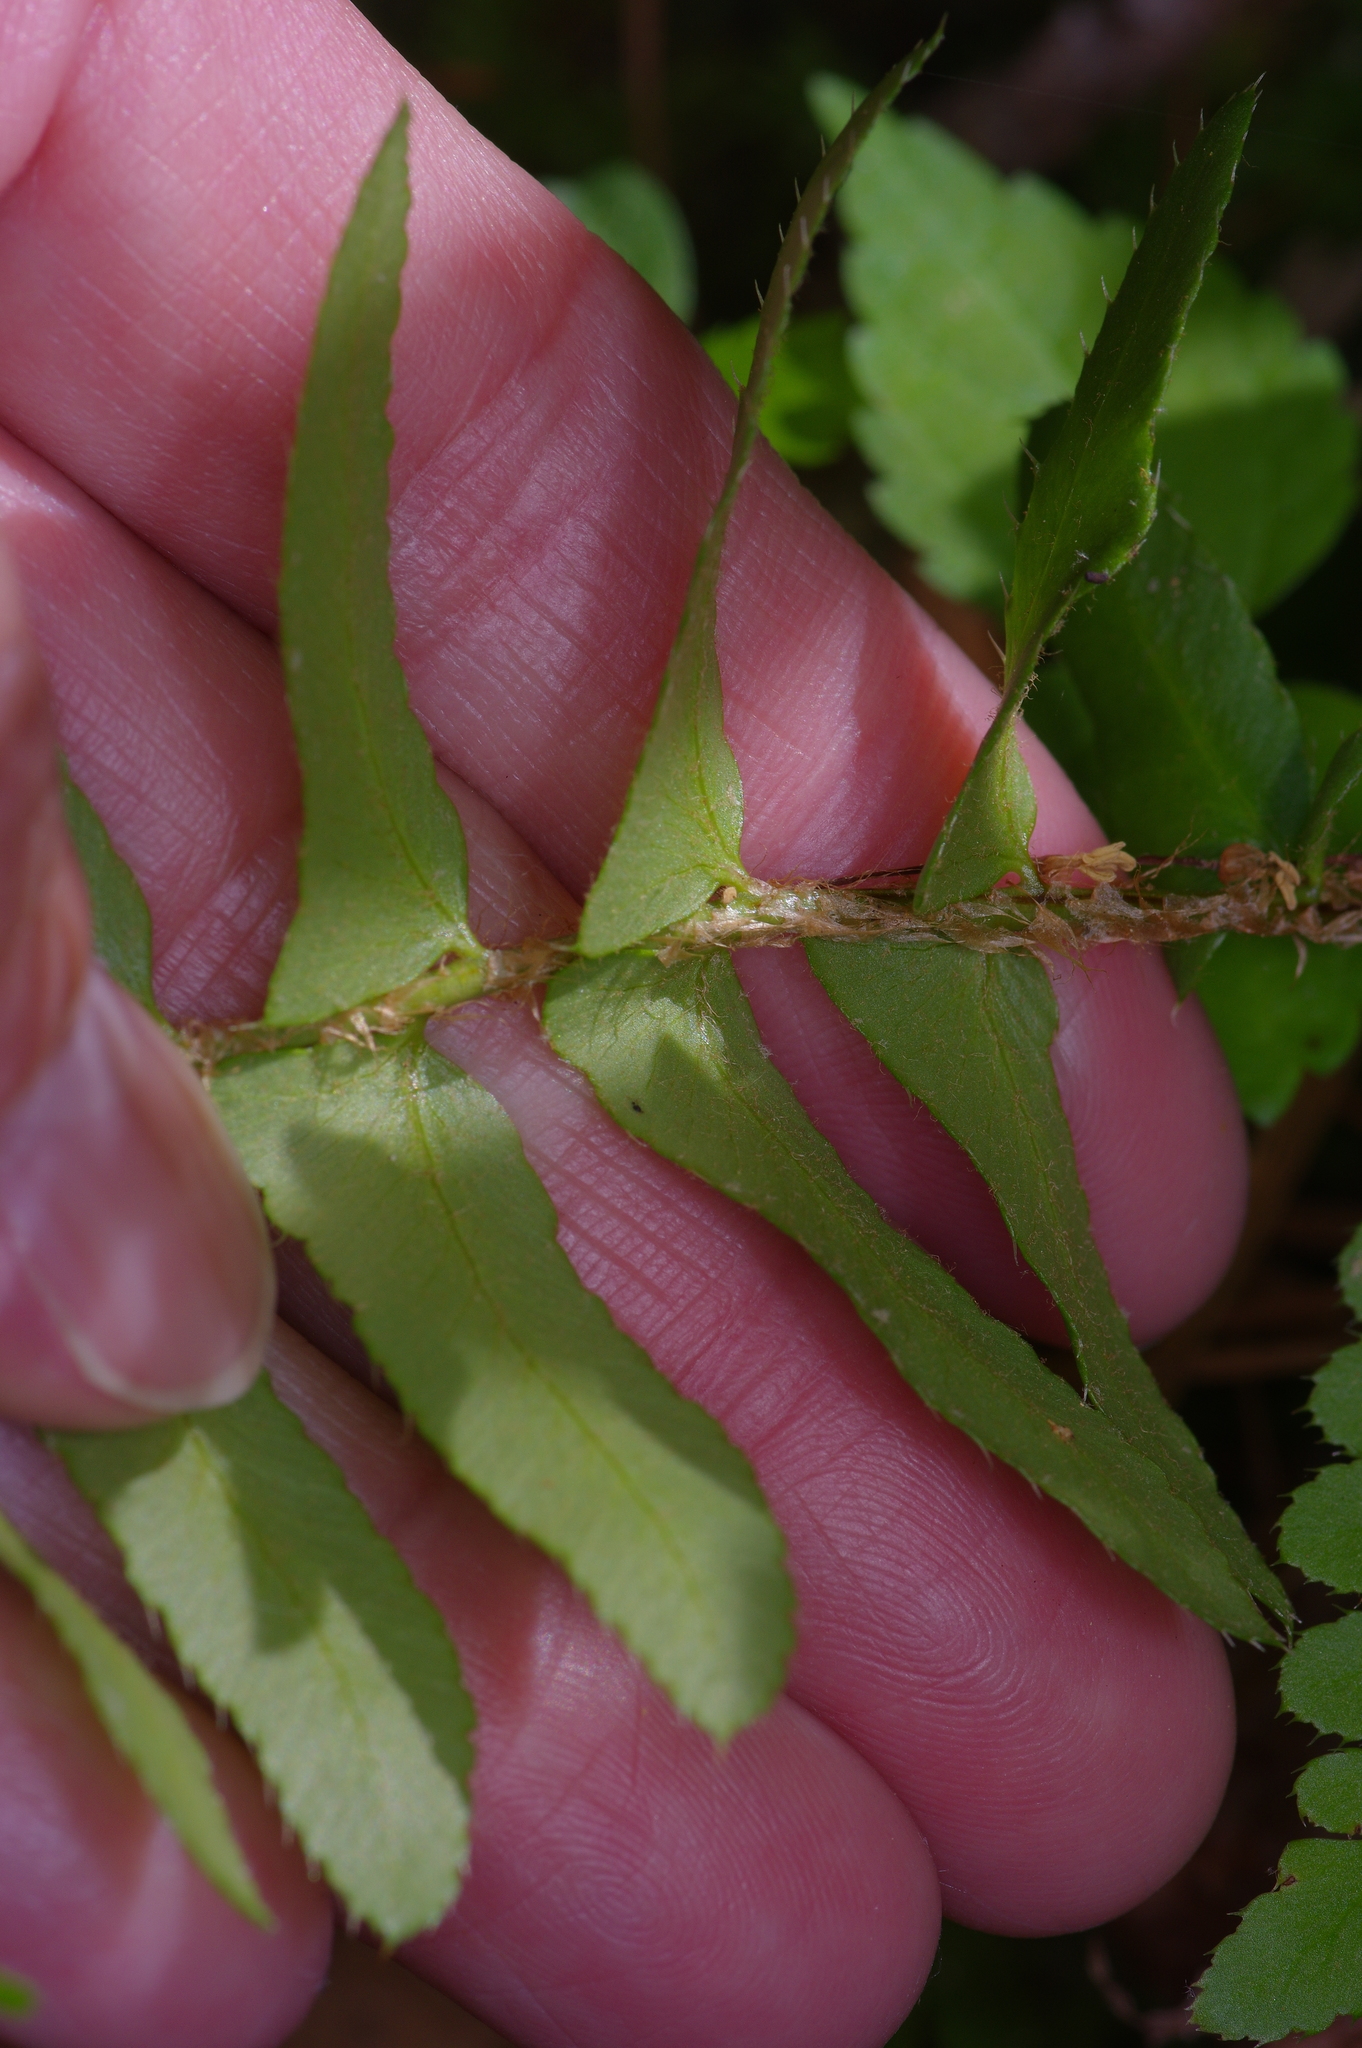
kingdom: Plantae
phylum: Tracheophyta
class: Polypodiopsida
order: Polypodiales
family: Dryopteridaceae
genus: Polystichum
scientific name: Polystichum acrostichoides
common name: Christmas fern
